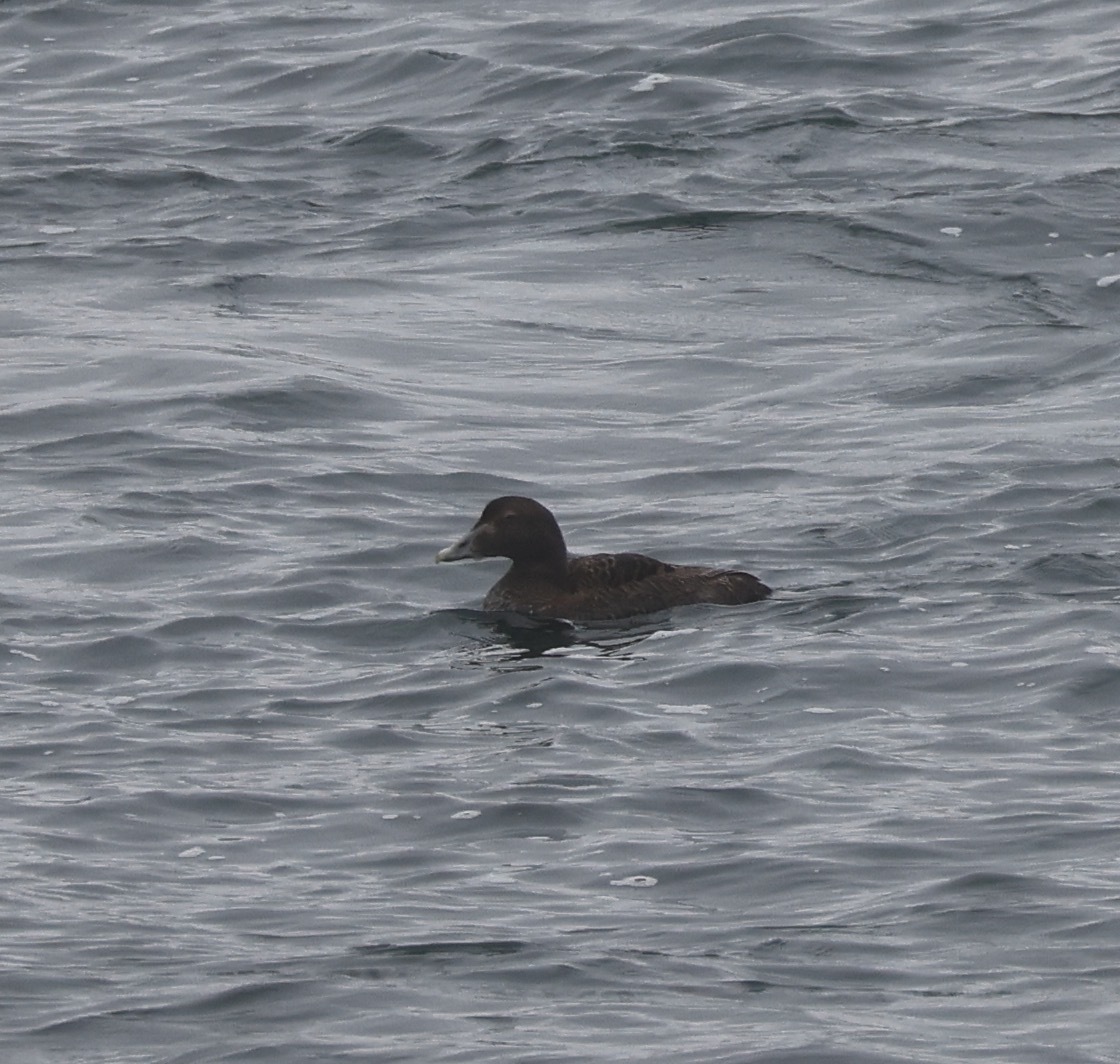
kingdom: Animalia
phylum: Chordata
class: Aves
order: Anseriformes
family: Anatidae
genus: Somateria
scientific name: Somateria mollissima
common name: Common eider
